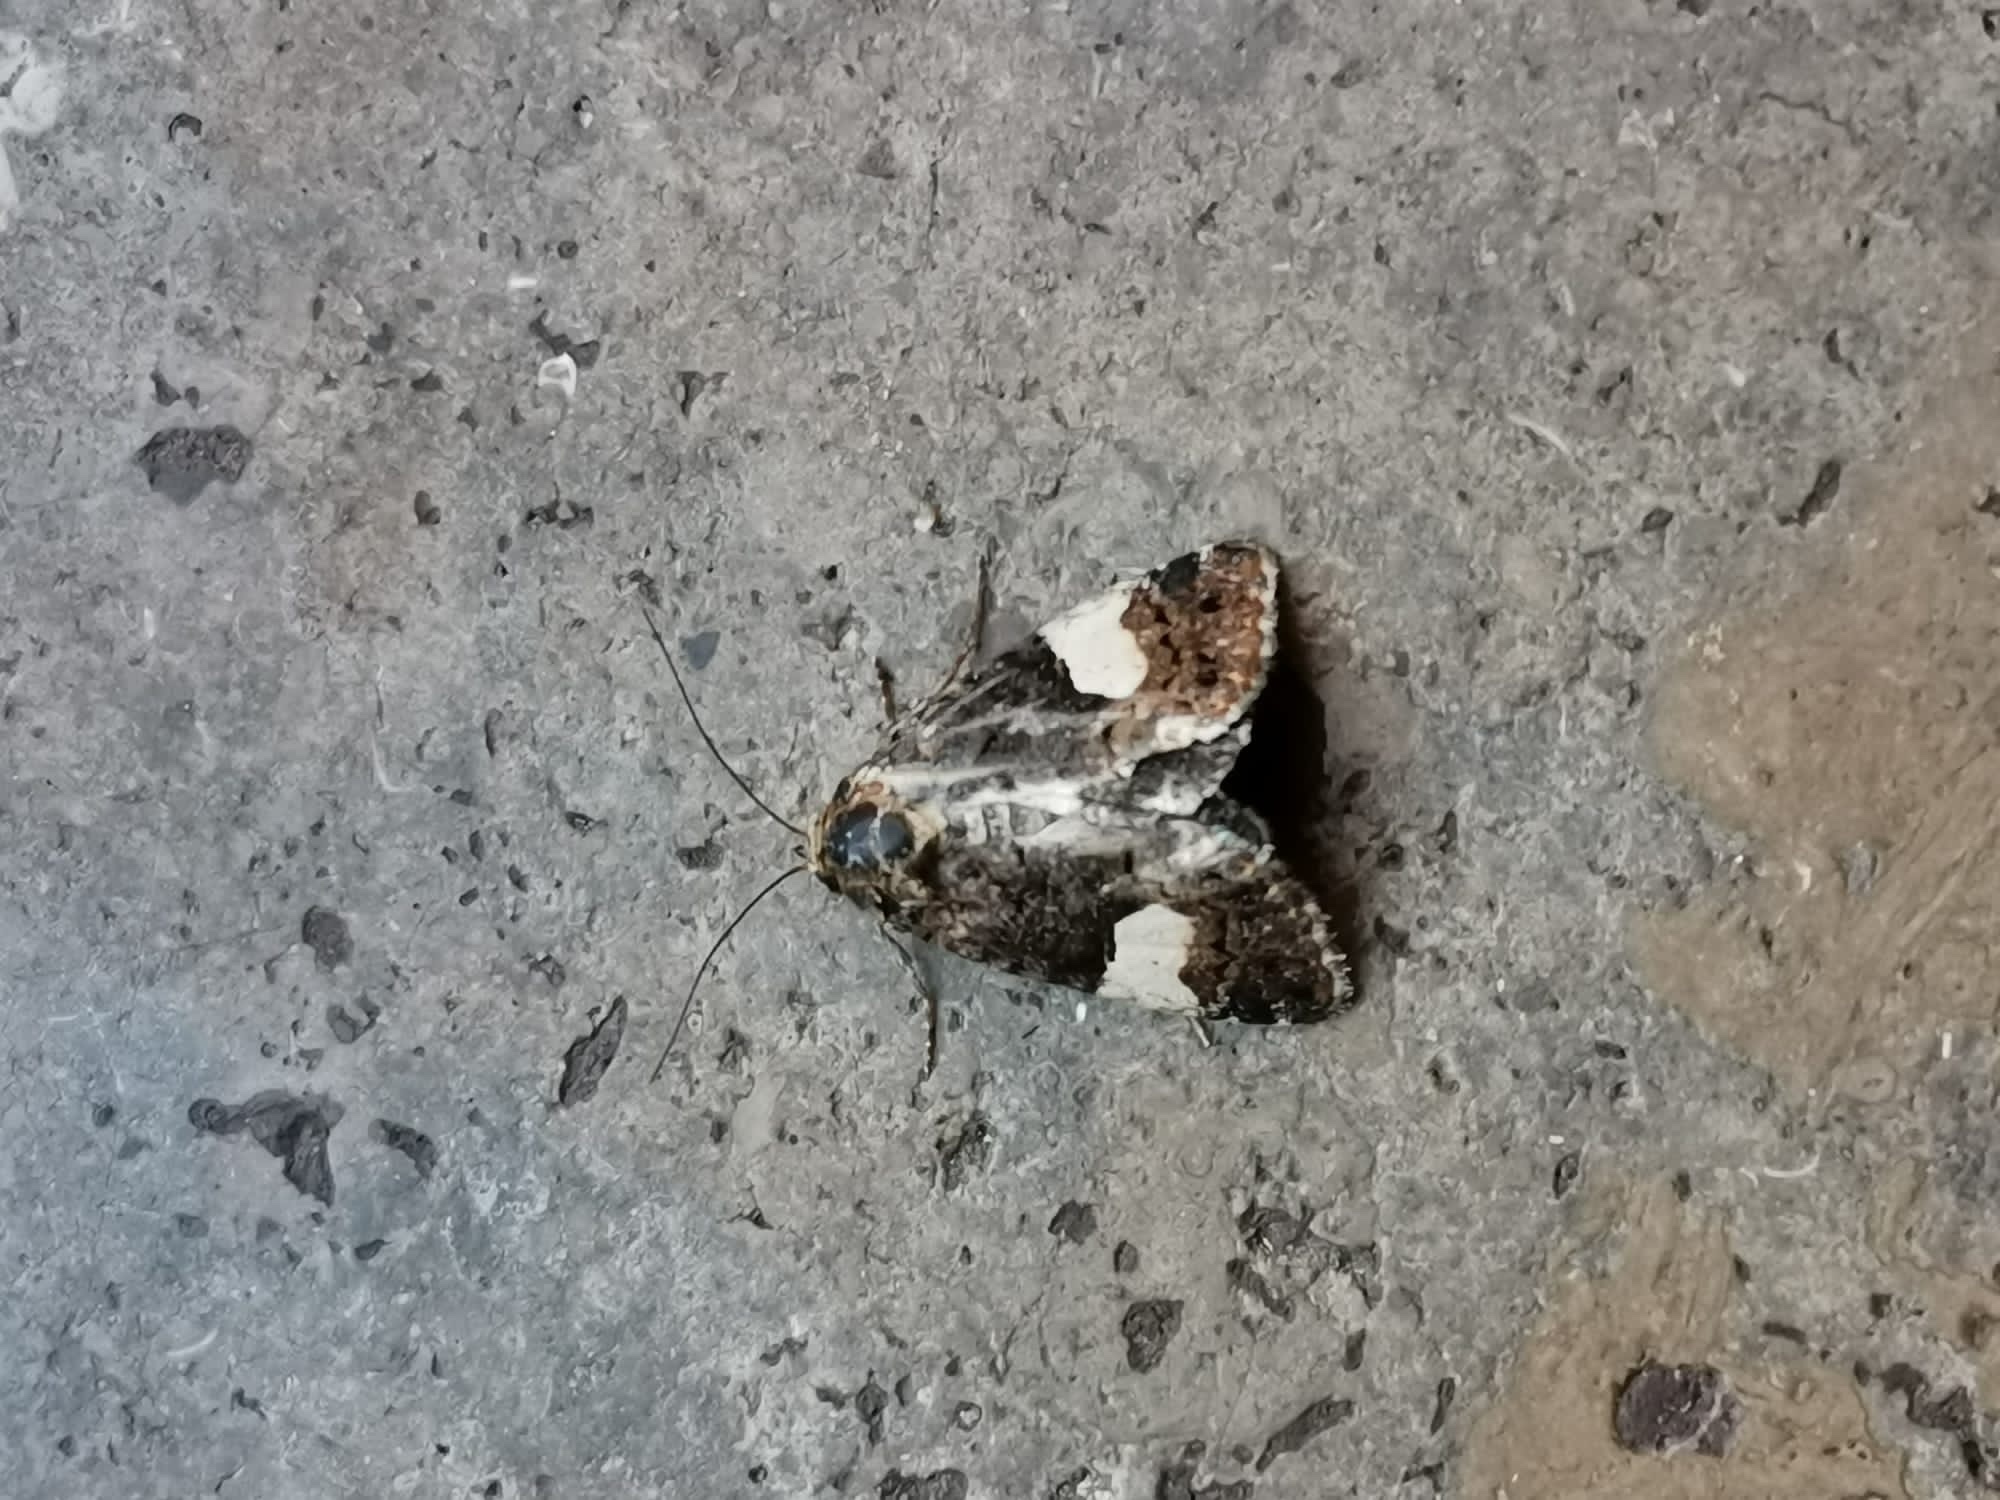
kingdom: Animalia
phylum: Arthropoda
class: Insecta
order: Lepidoptera
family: Erebidae
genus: Tyta
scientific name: Tyta luctuosa
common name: Four-spotted
